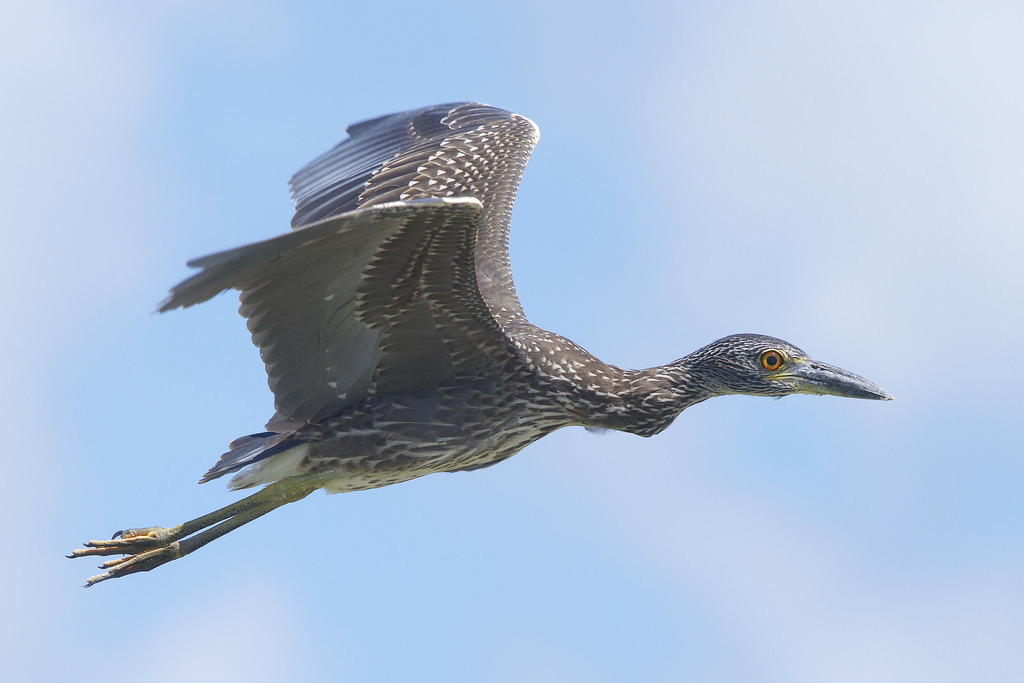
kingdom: Animalia
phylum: Chordata
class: Aves
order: Pelecaniformes
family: Ardeidae
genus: Nyctanassa
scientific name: Nyctanassa violacea
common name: Yellow-crowned night heron
